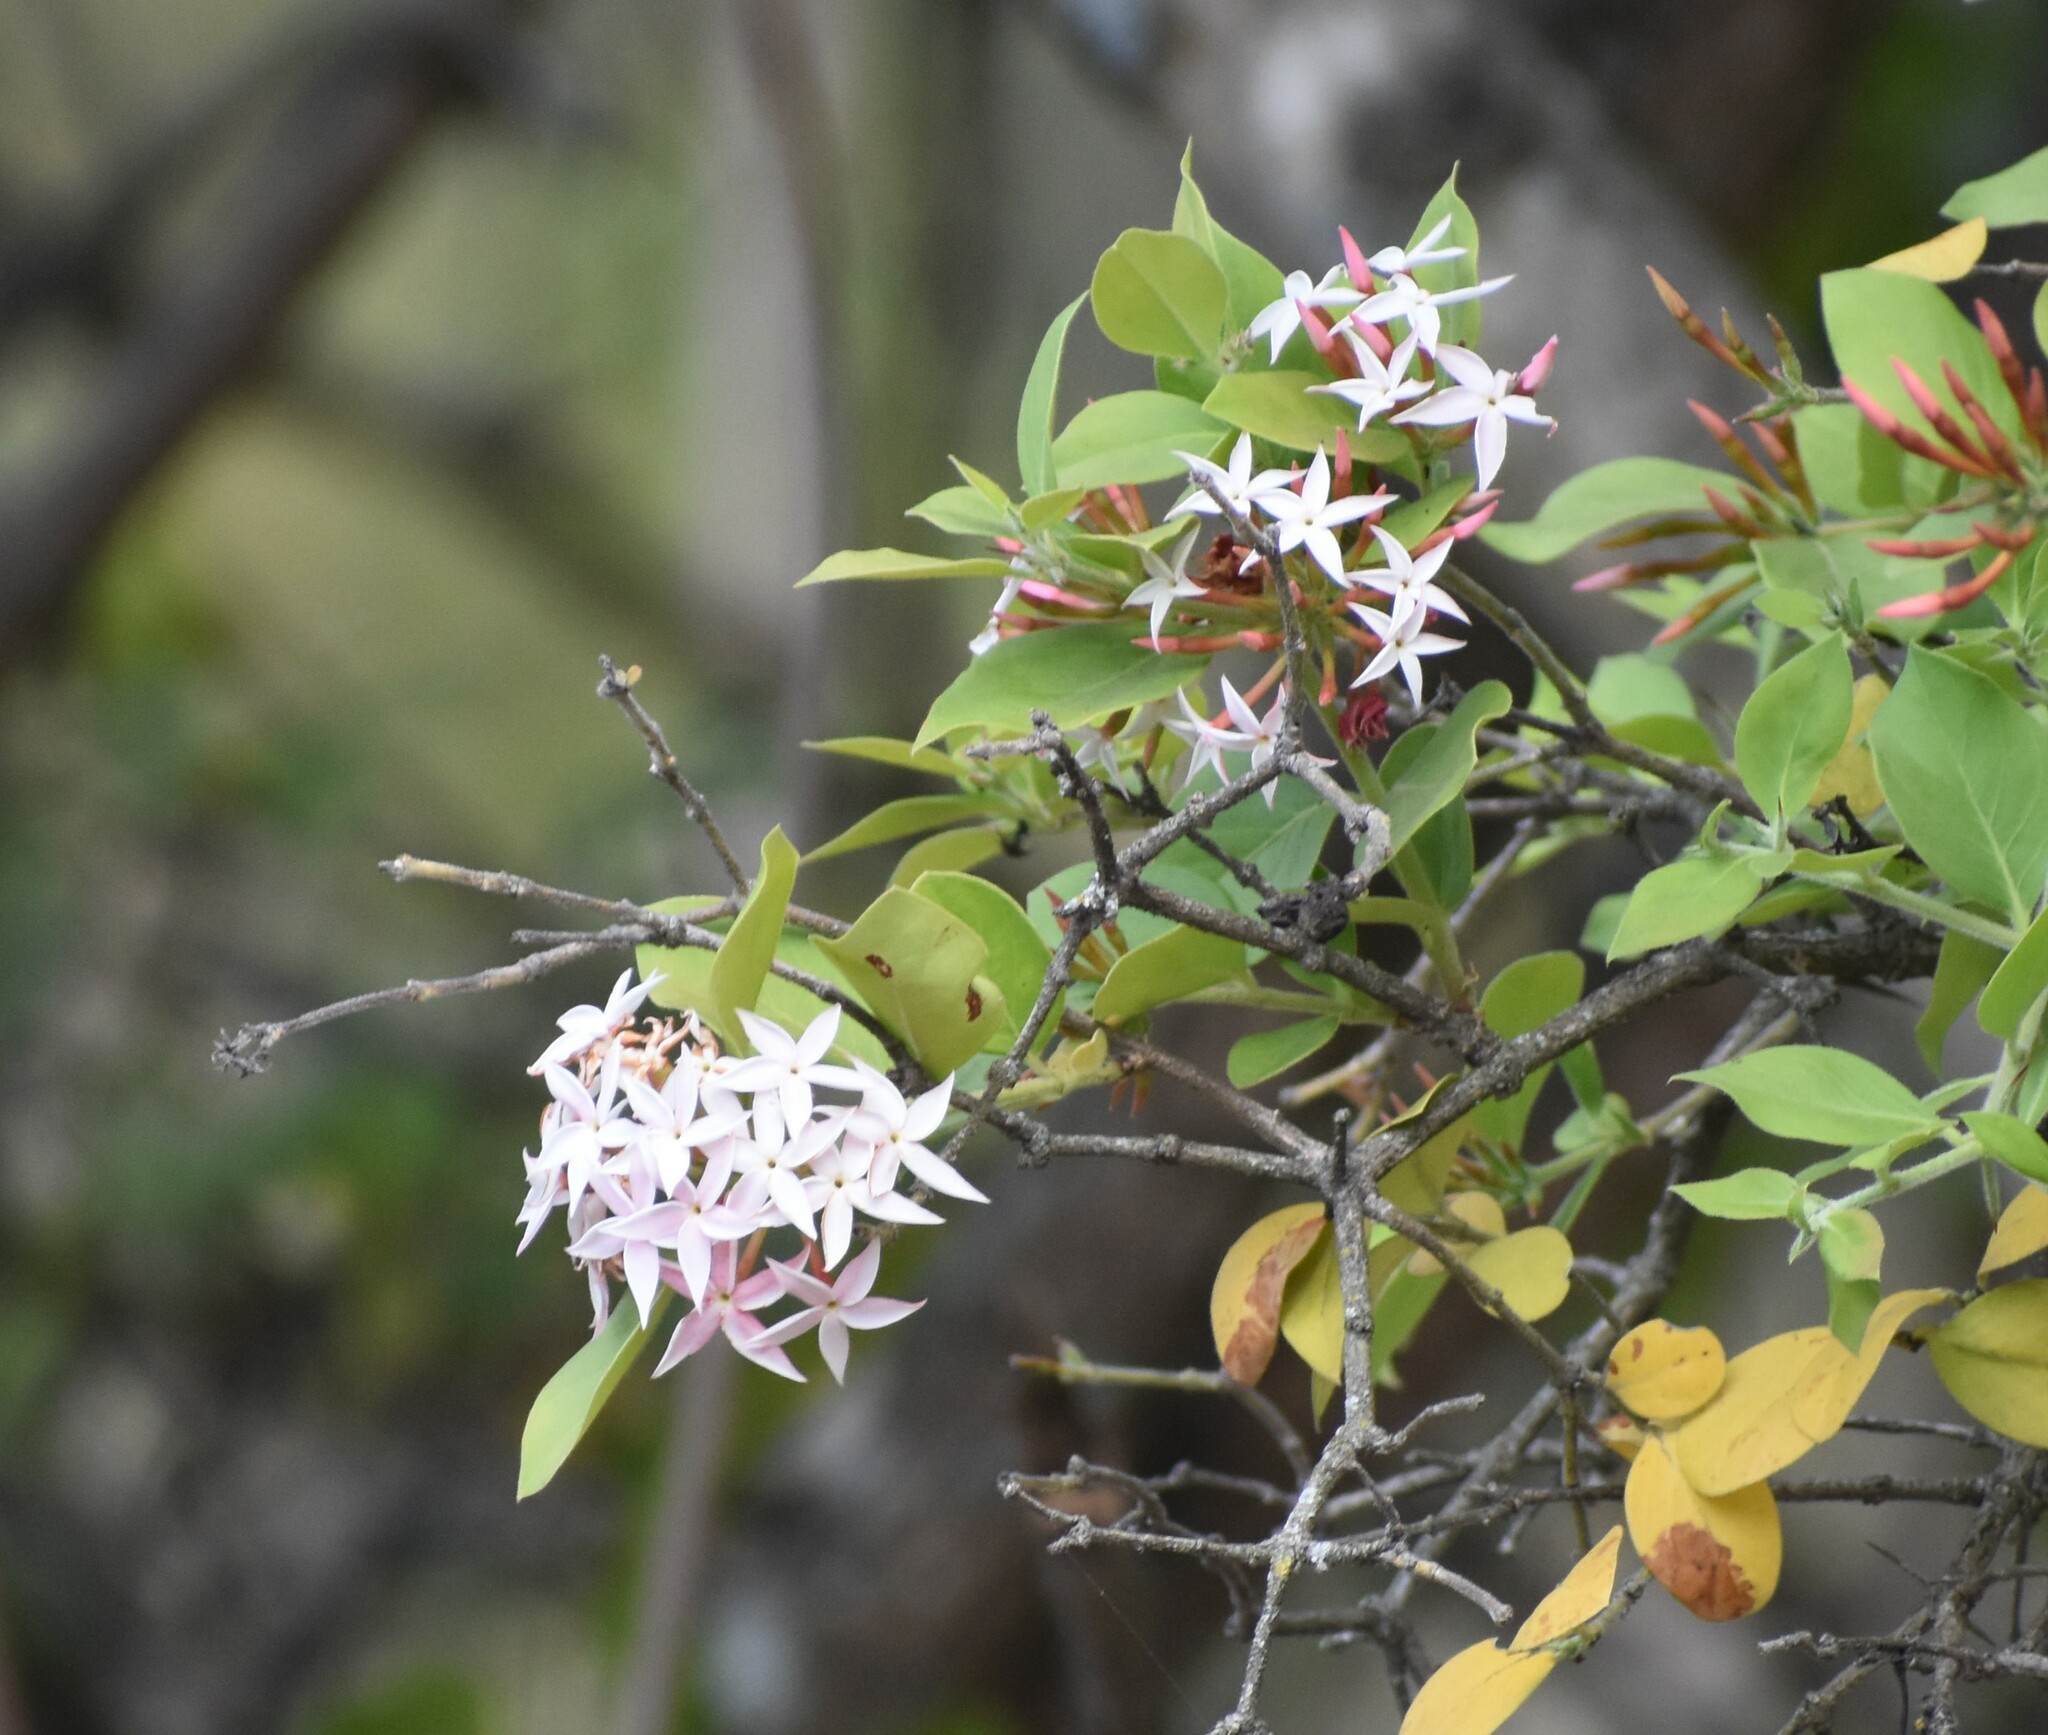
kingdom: Plantae
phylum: Tracheophyta
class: Magnoliopsida
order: Gentianales
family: Apocynaceae
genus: Carissa
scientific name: Carissa spinarum
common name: Egyptian carissa
